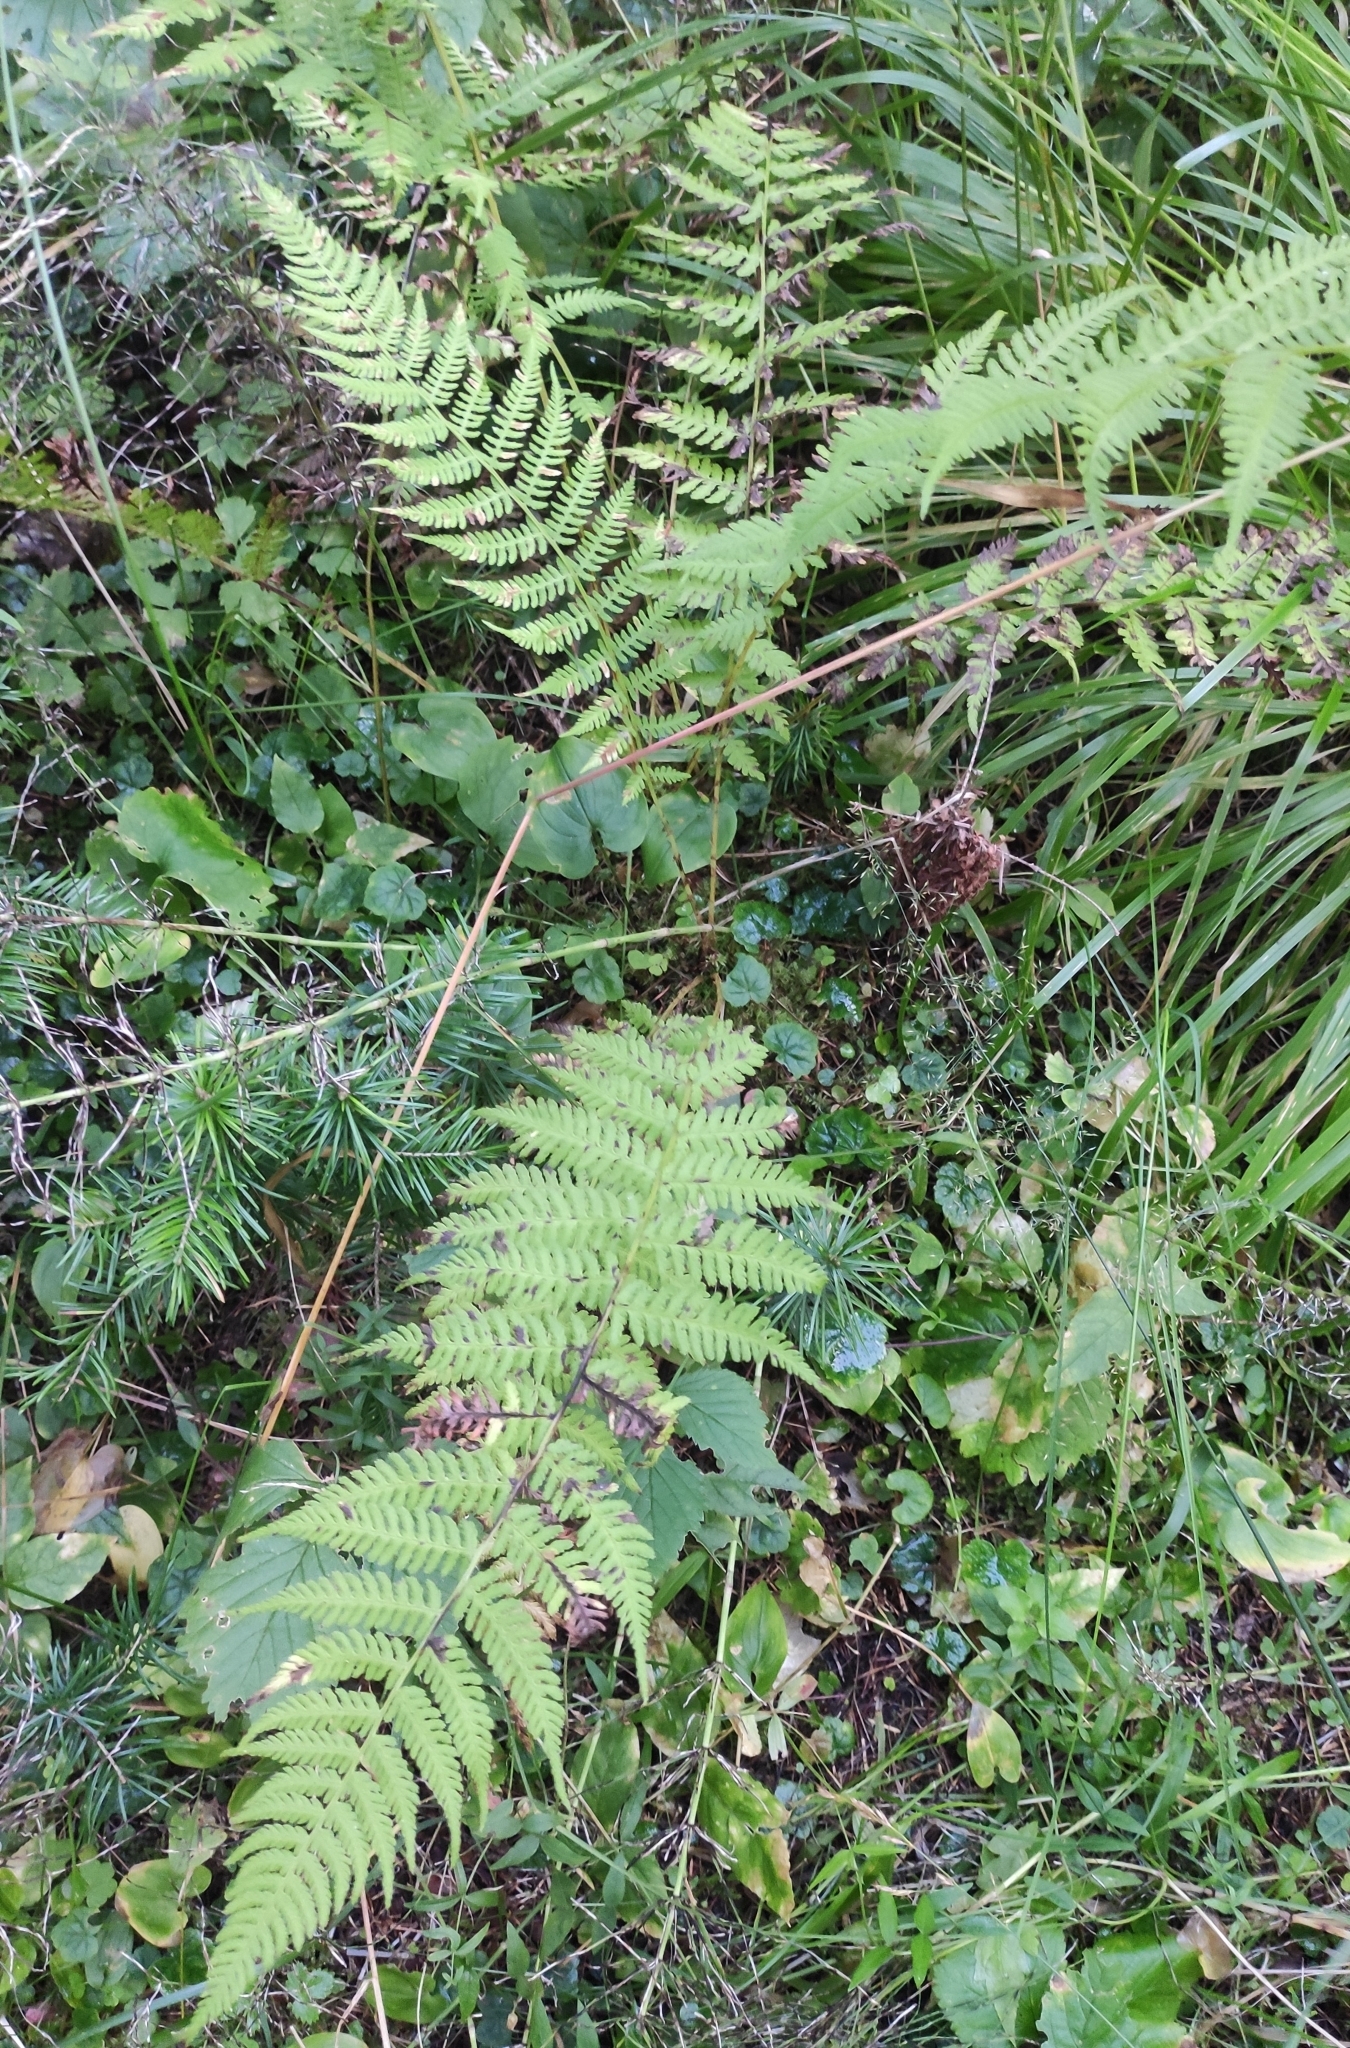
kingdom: Plantae
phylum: Tracheophyta
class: Polypodiopsida
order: Polypodiales
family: Athyriaceae
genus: Athyrium
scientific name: Athyrium filix-femina
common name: Lady fern
